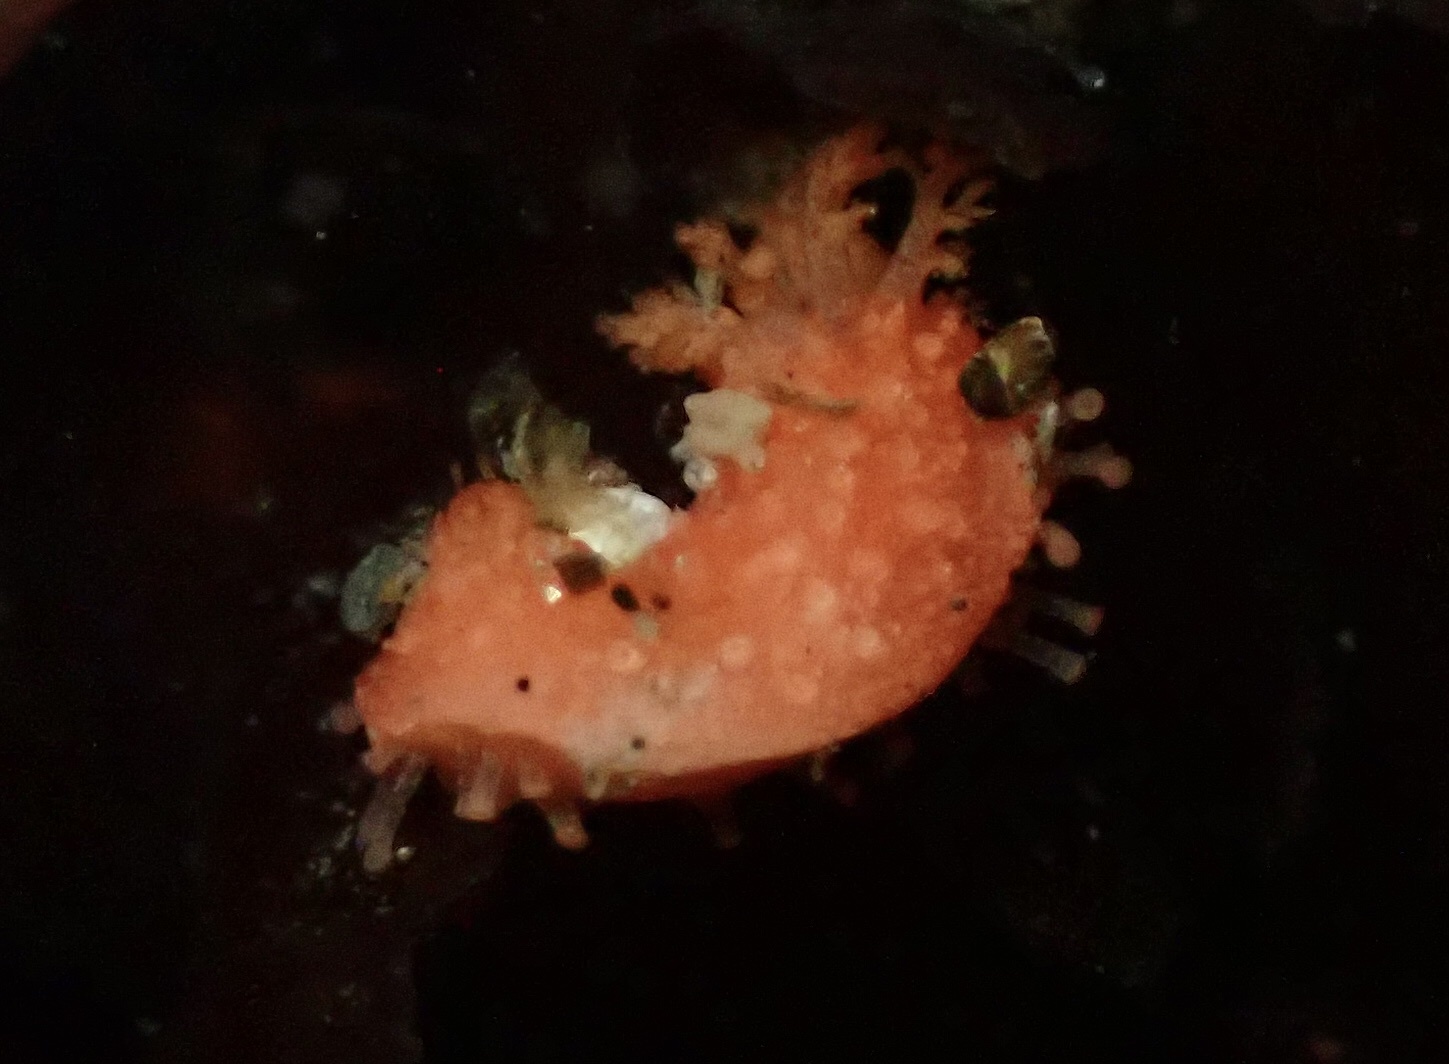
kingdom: Animalia
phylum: Echinodermata
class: Holothuroidea
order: Dendrochirotida
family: Psolidae
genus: Lissothuria
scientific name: Lissothuria nutriens
